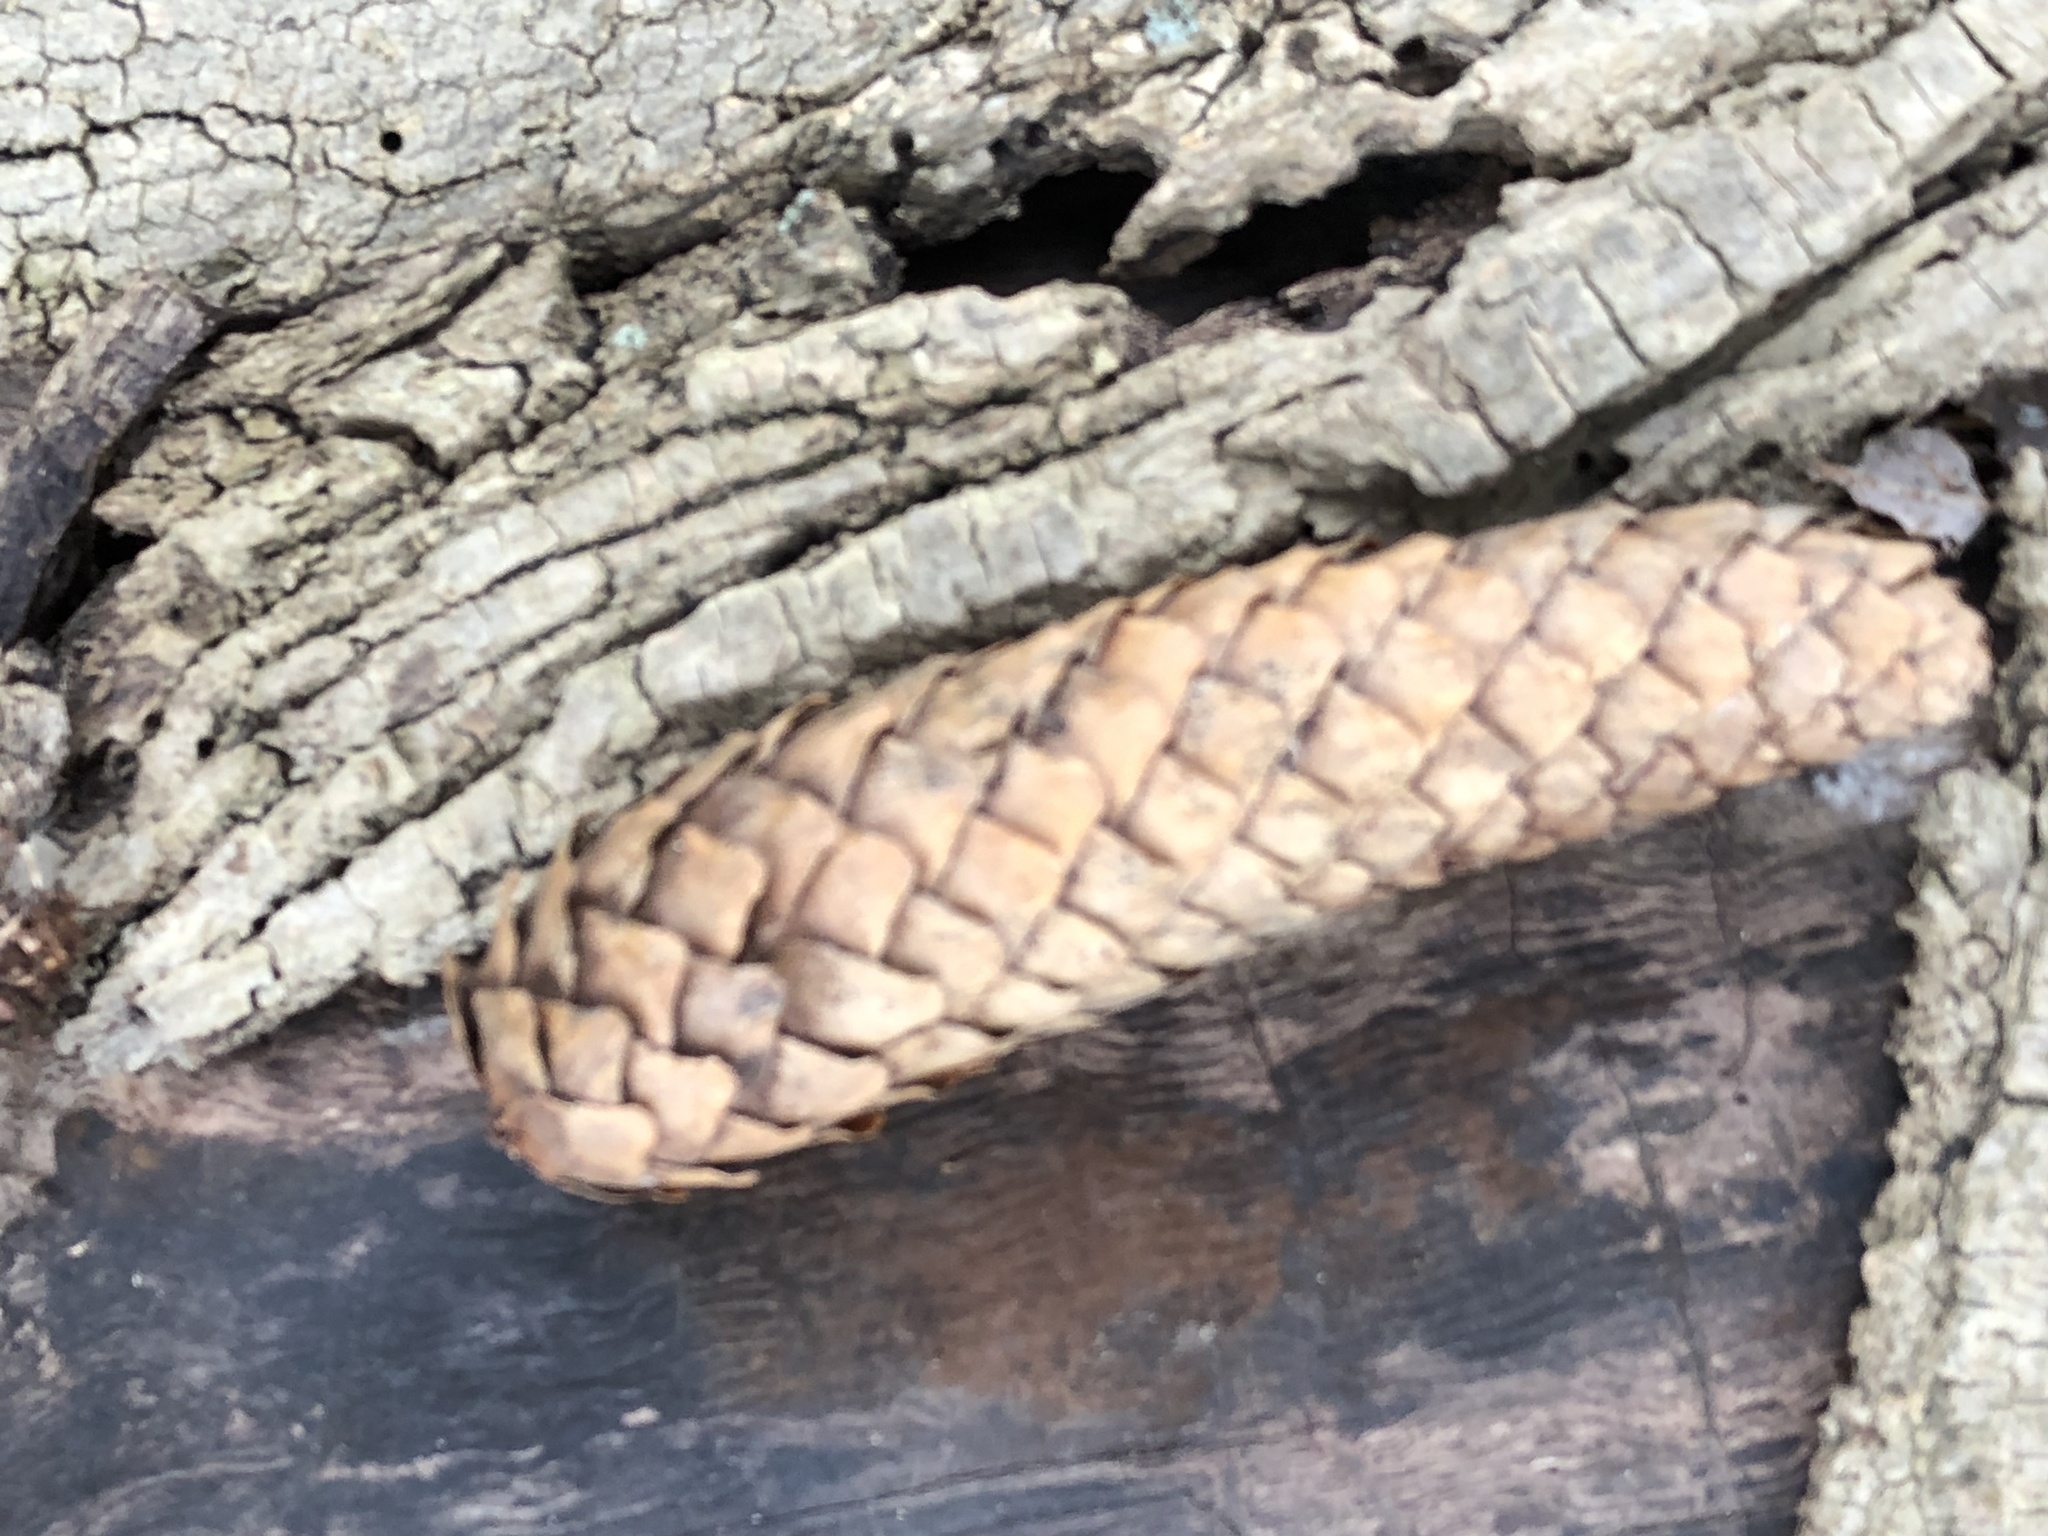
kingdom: Plantae
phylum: Tracheophyta
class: Pinopsida
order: Pinales
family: Pinaceae
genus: Picea
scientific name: Picea abies
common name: Norway spruce
